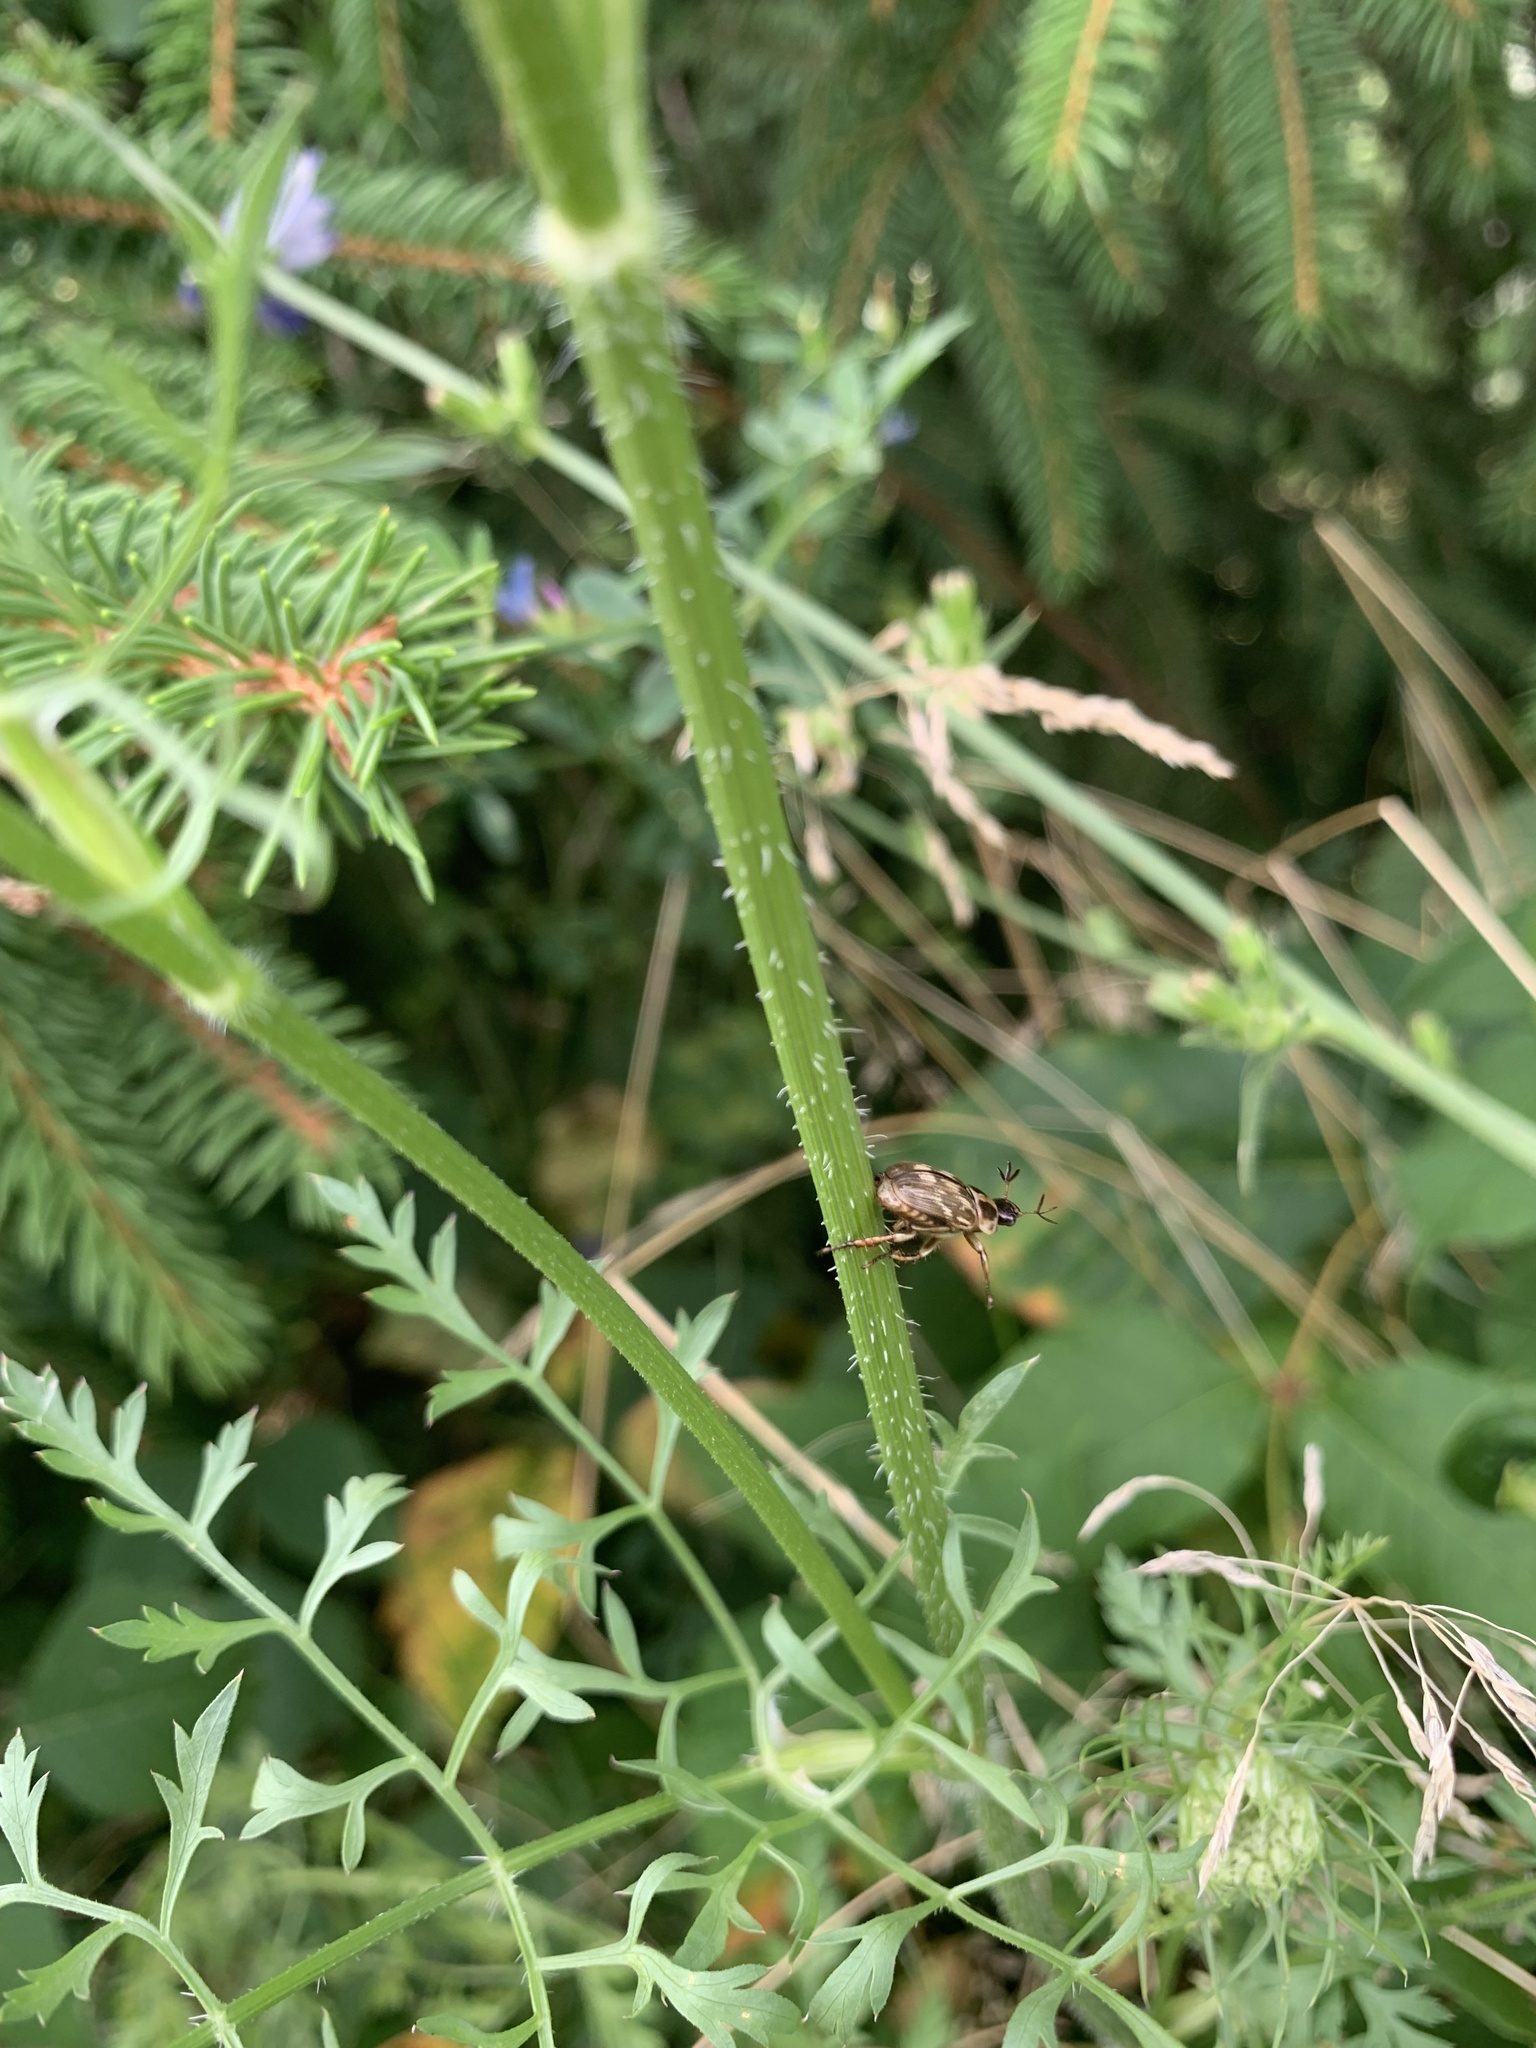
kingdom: Animalia
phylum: Arthropoda
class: Insecta
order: Coleoptera
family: Scarabaeidae
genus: Exomala
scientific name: Exomala orientalis
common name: Oriental beetle
